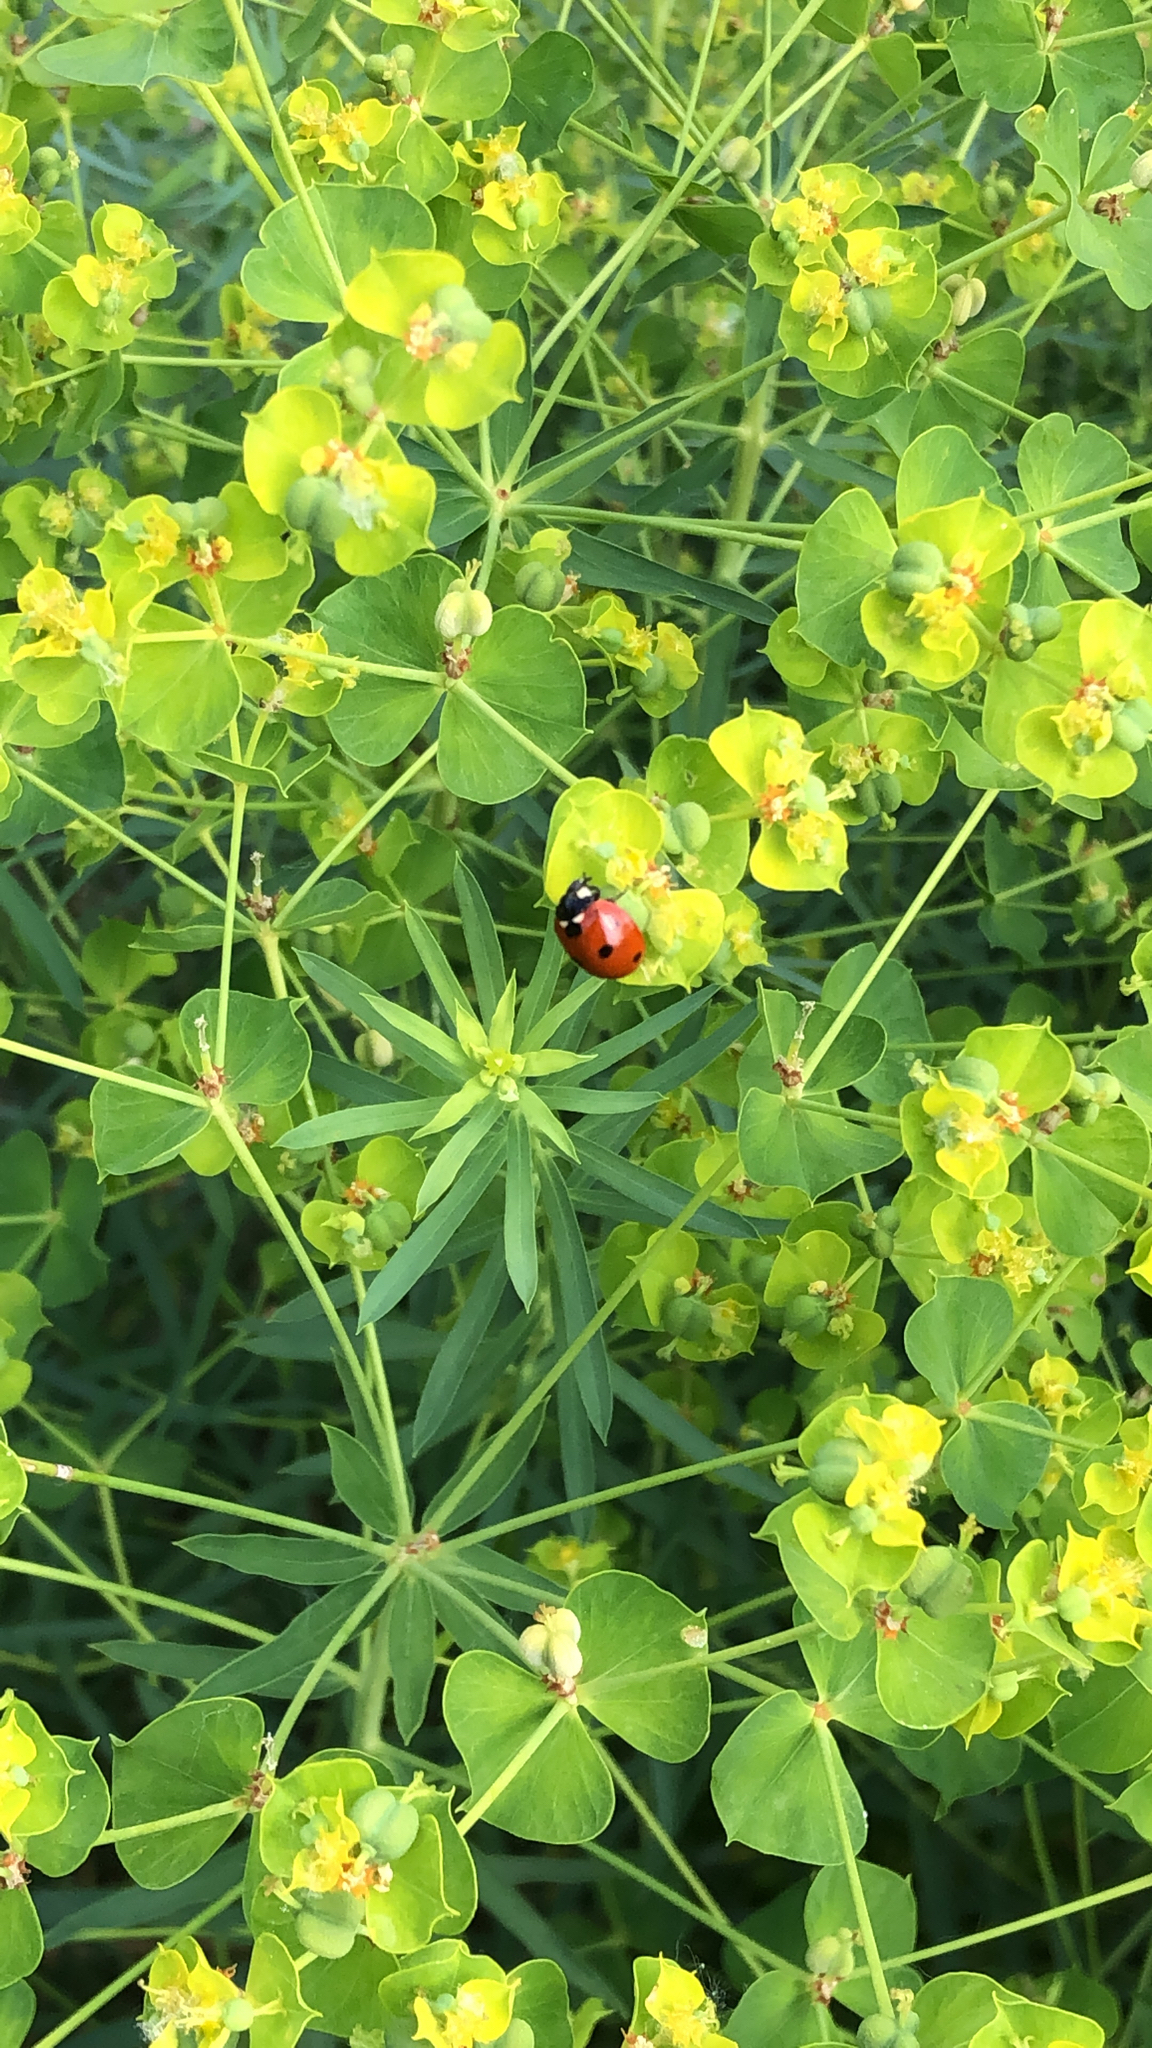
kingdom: Animalia
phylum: Arthropoda
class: Insecta
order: Coleoptera
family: Coccinellidae
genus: Coccinella
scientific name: Coccinella septempunctata
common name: Sevenspotted lady beetle
